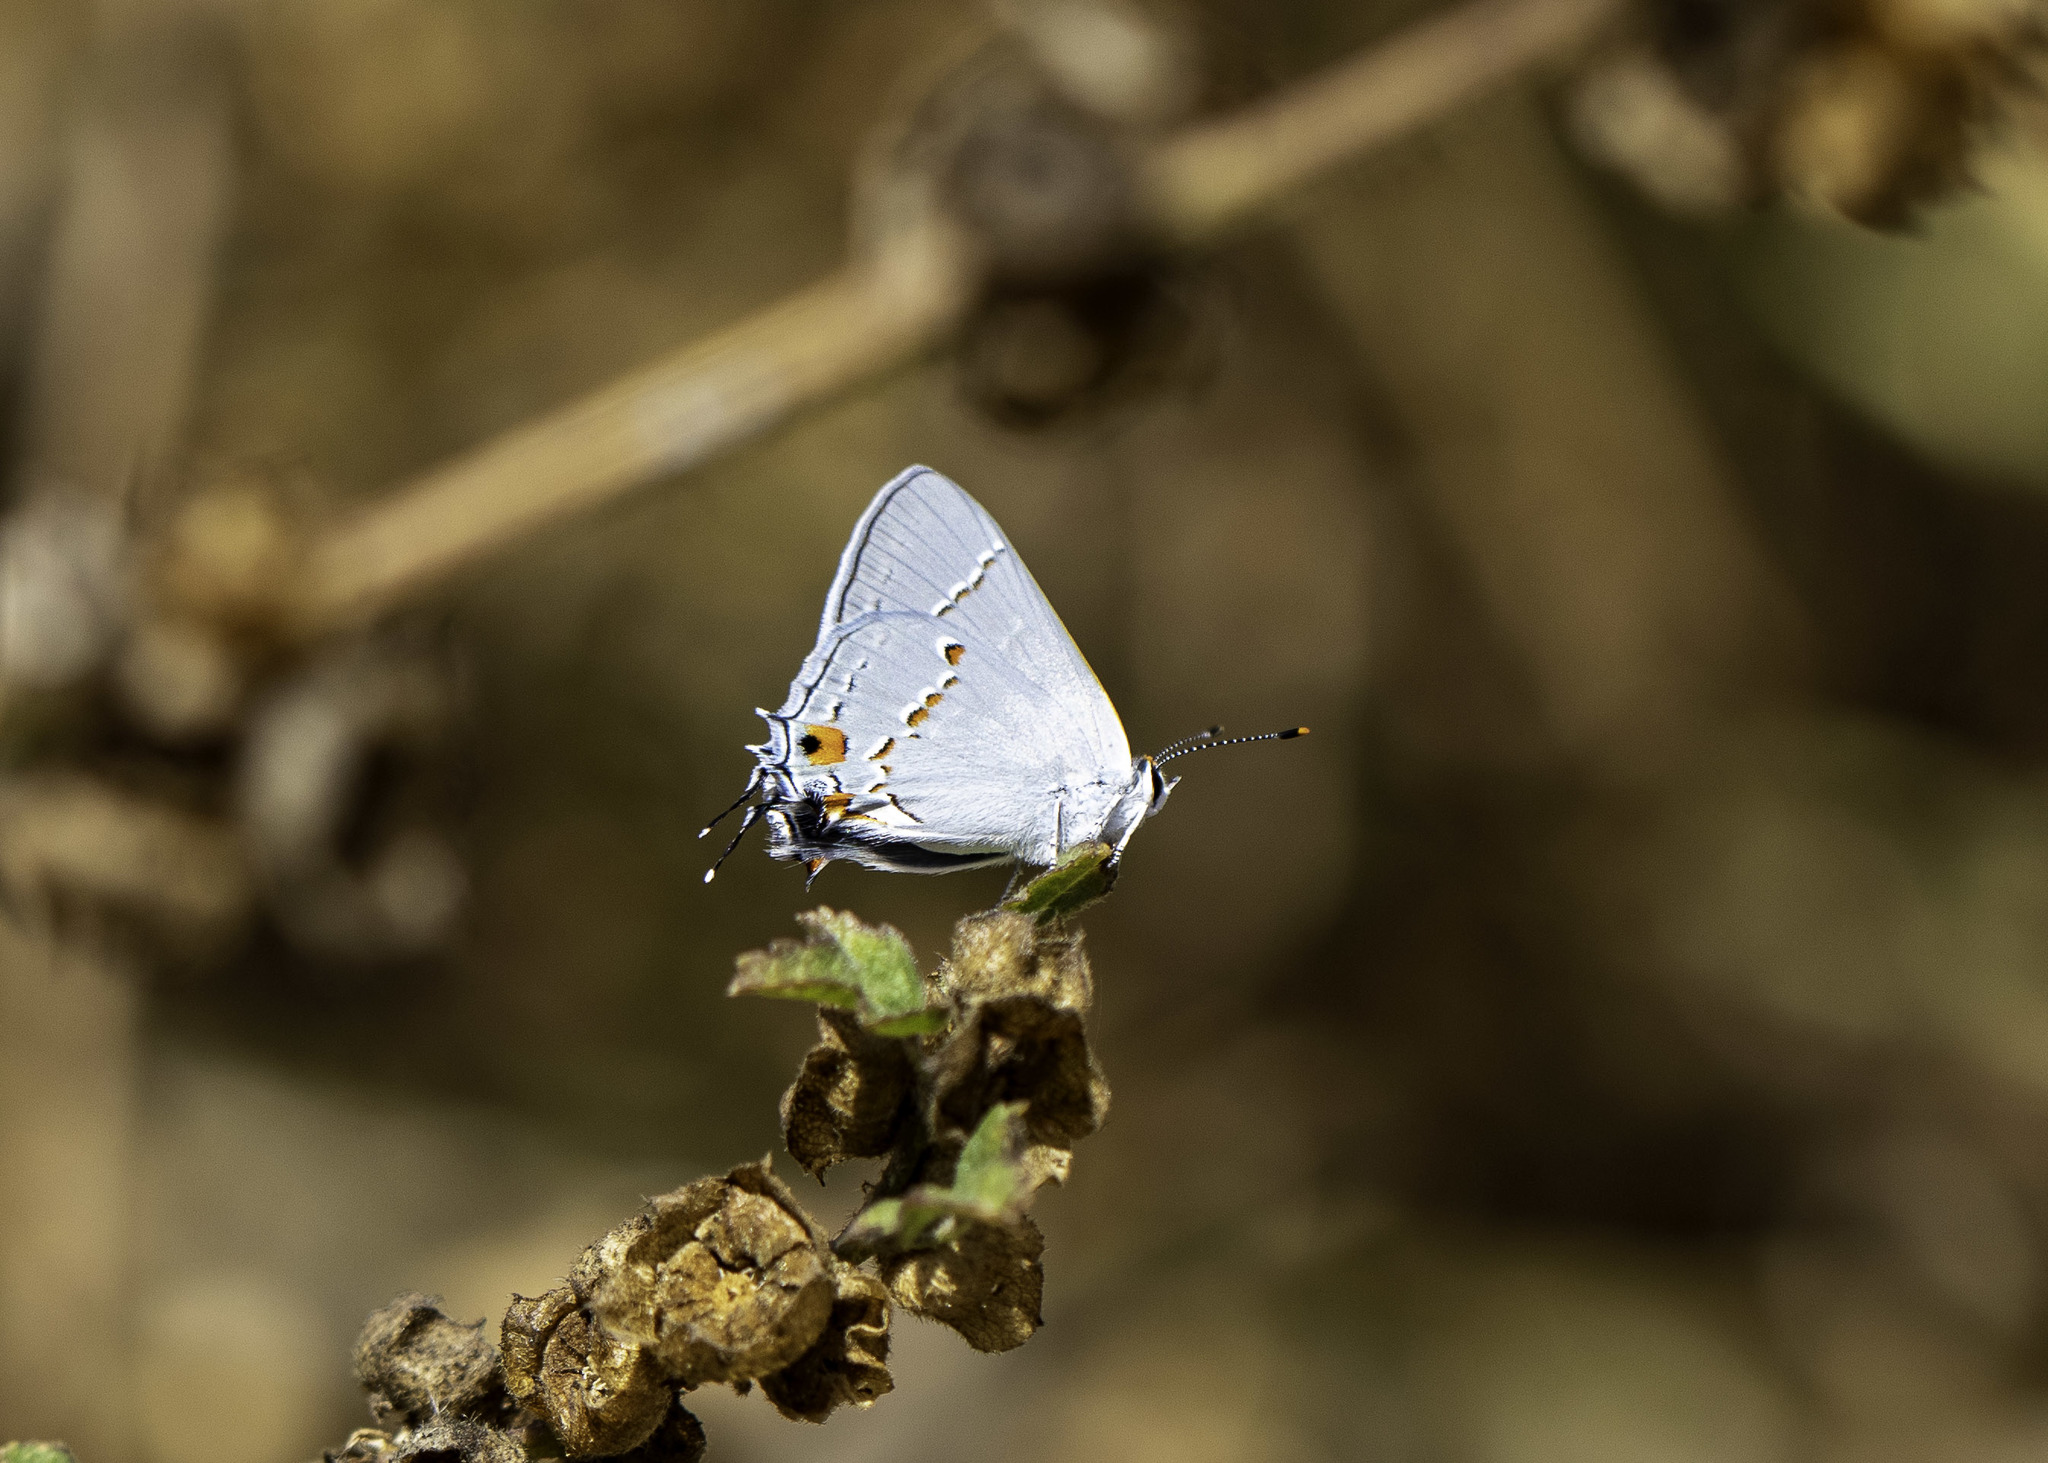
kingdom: Animalia
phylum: Arthropoda
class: Insecta
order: Lepidoptera
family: Lycaenidae
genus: Strymon
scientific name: Strymon melinus
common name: Gray hairstreak
